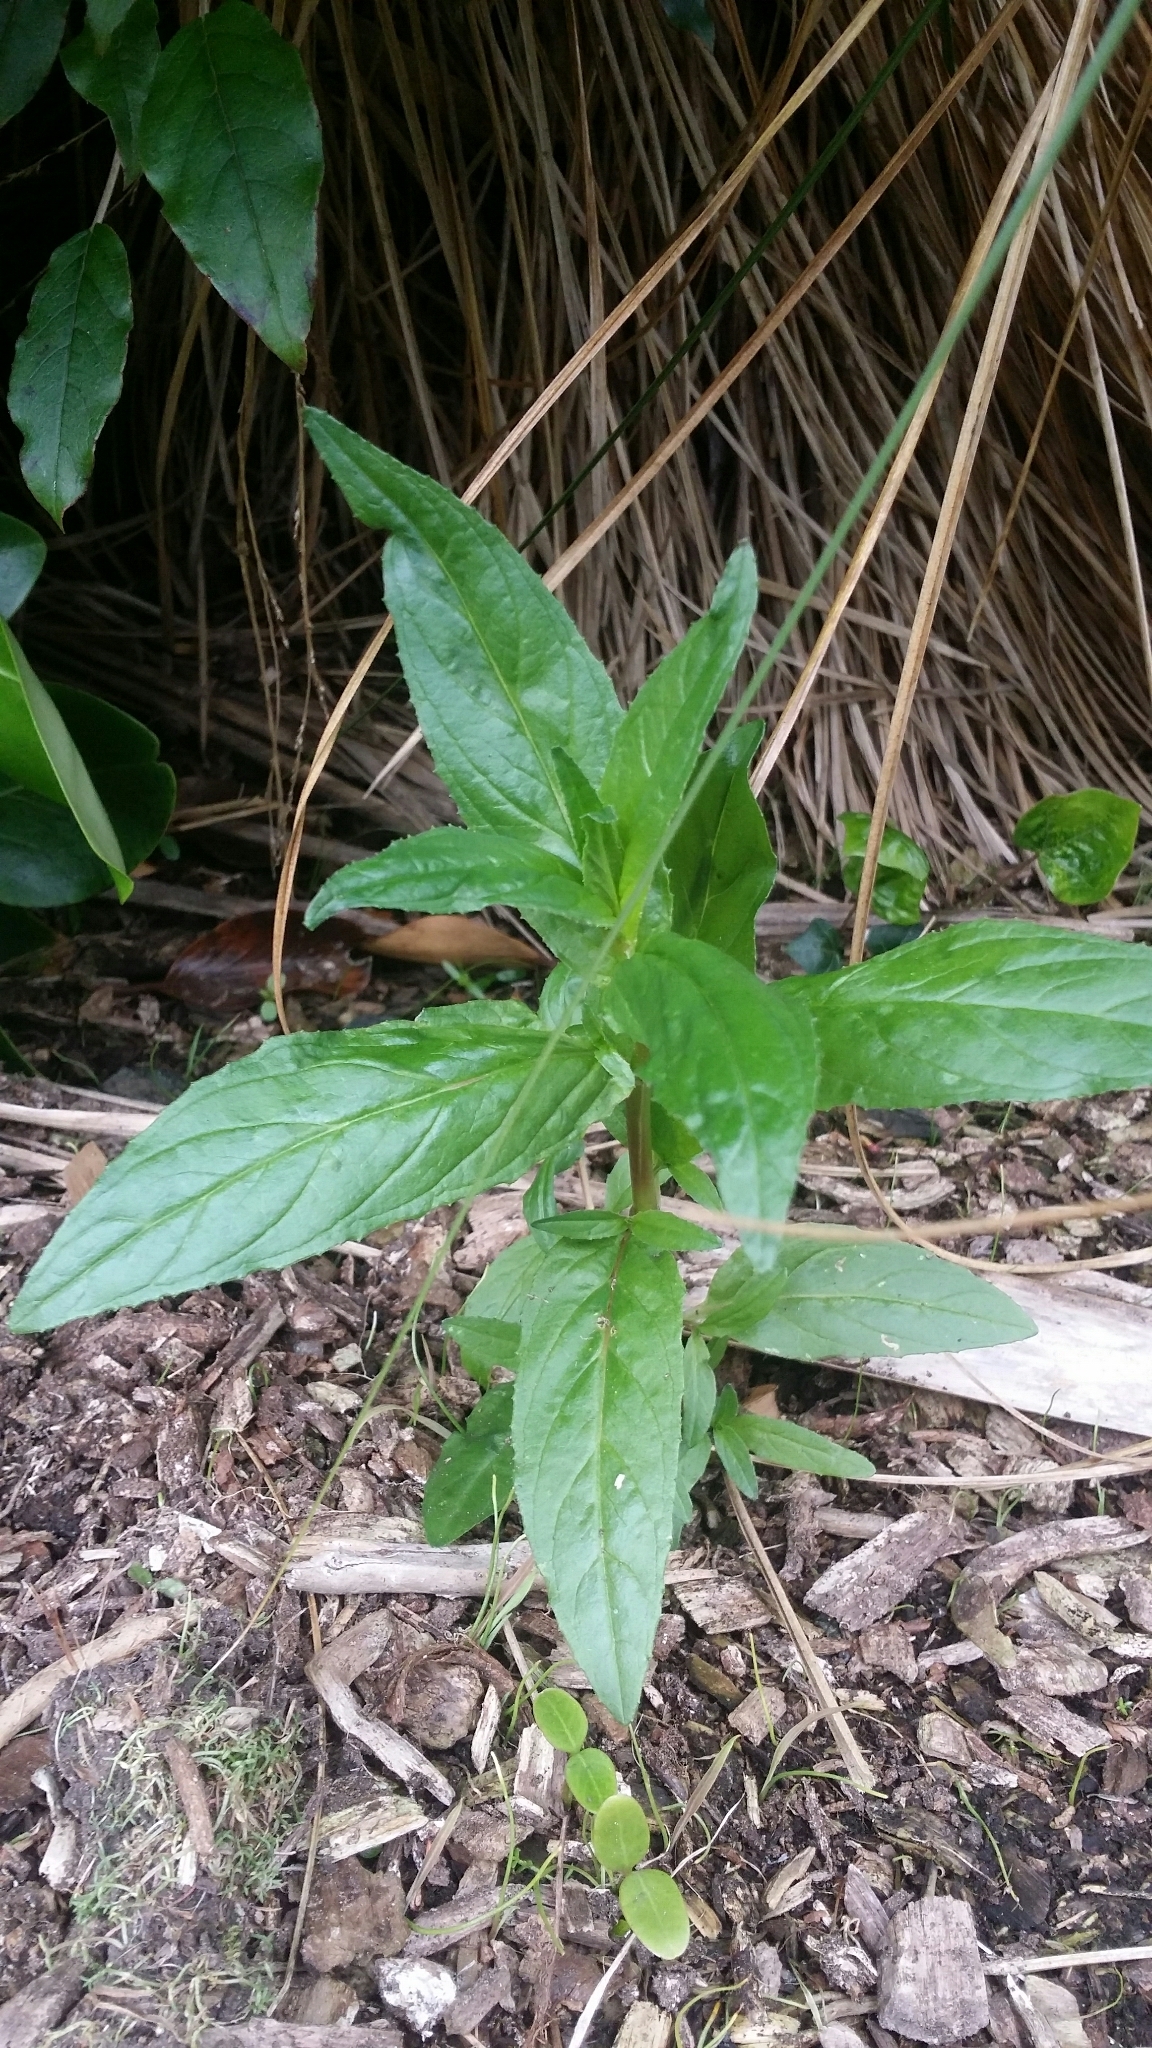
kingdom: Plantae
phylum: Tracheophyta
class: Magnoliopsida
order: Myrtales
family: Onagraceae
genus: Epilobium
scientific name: Epilobium ciliatum
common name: American willowherb
